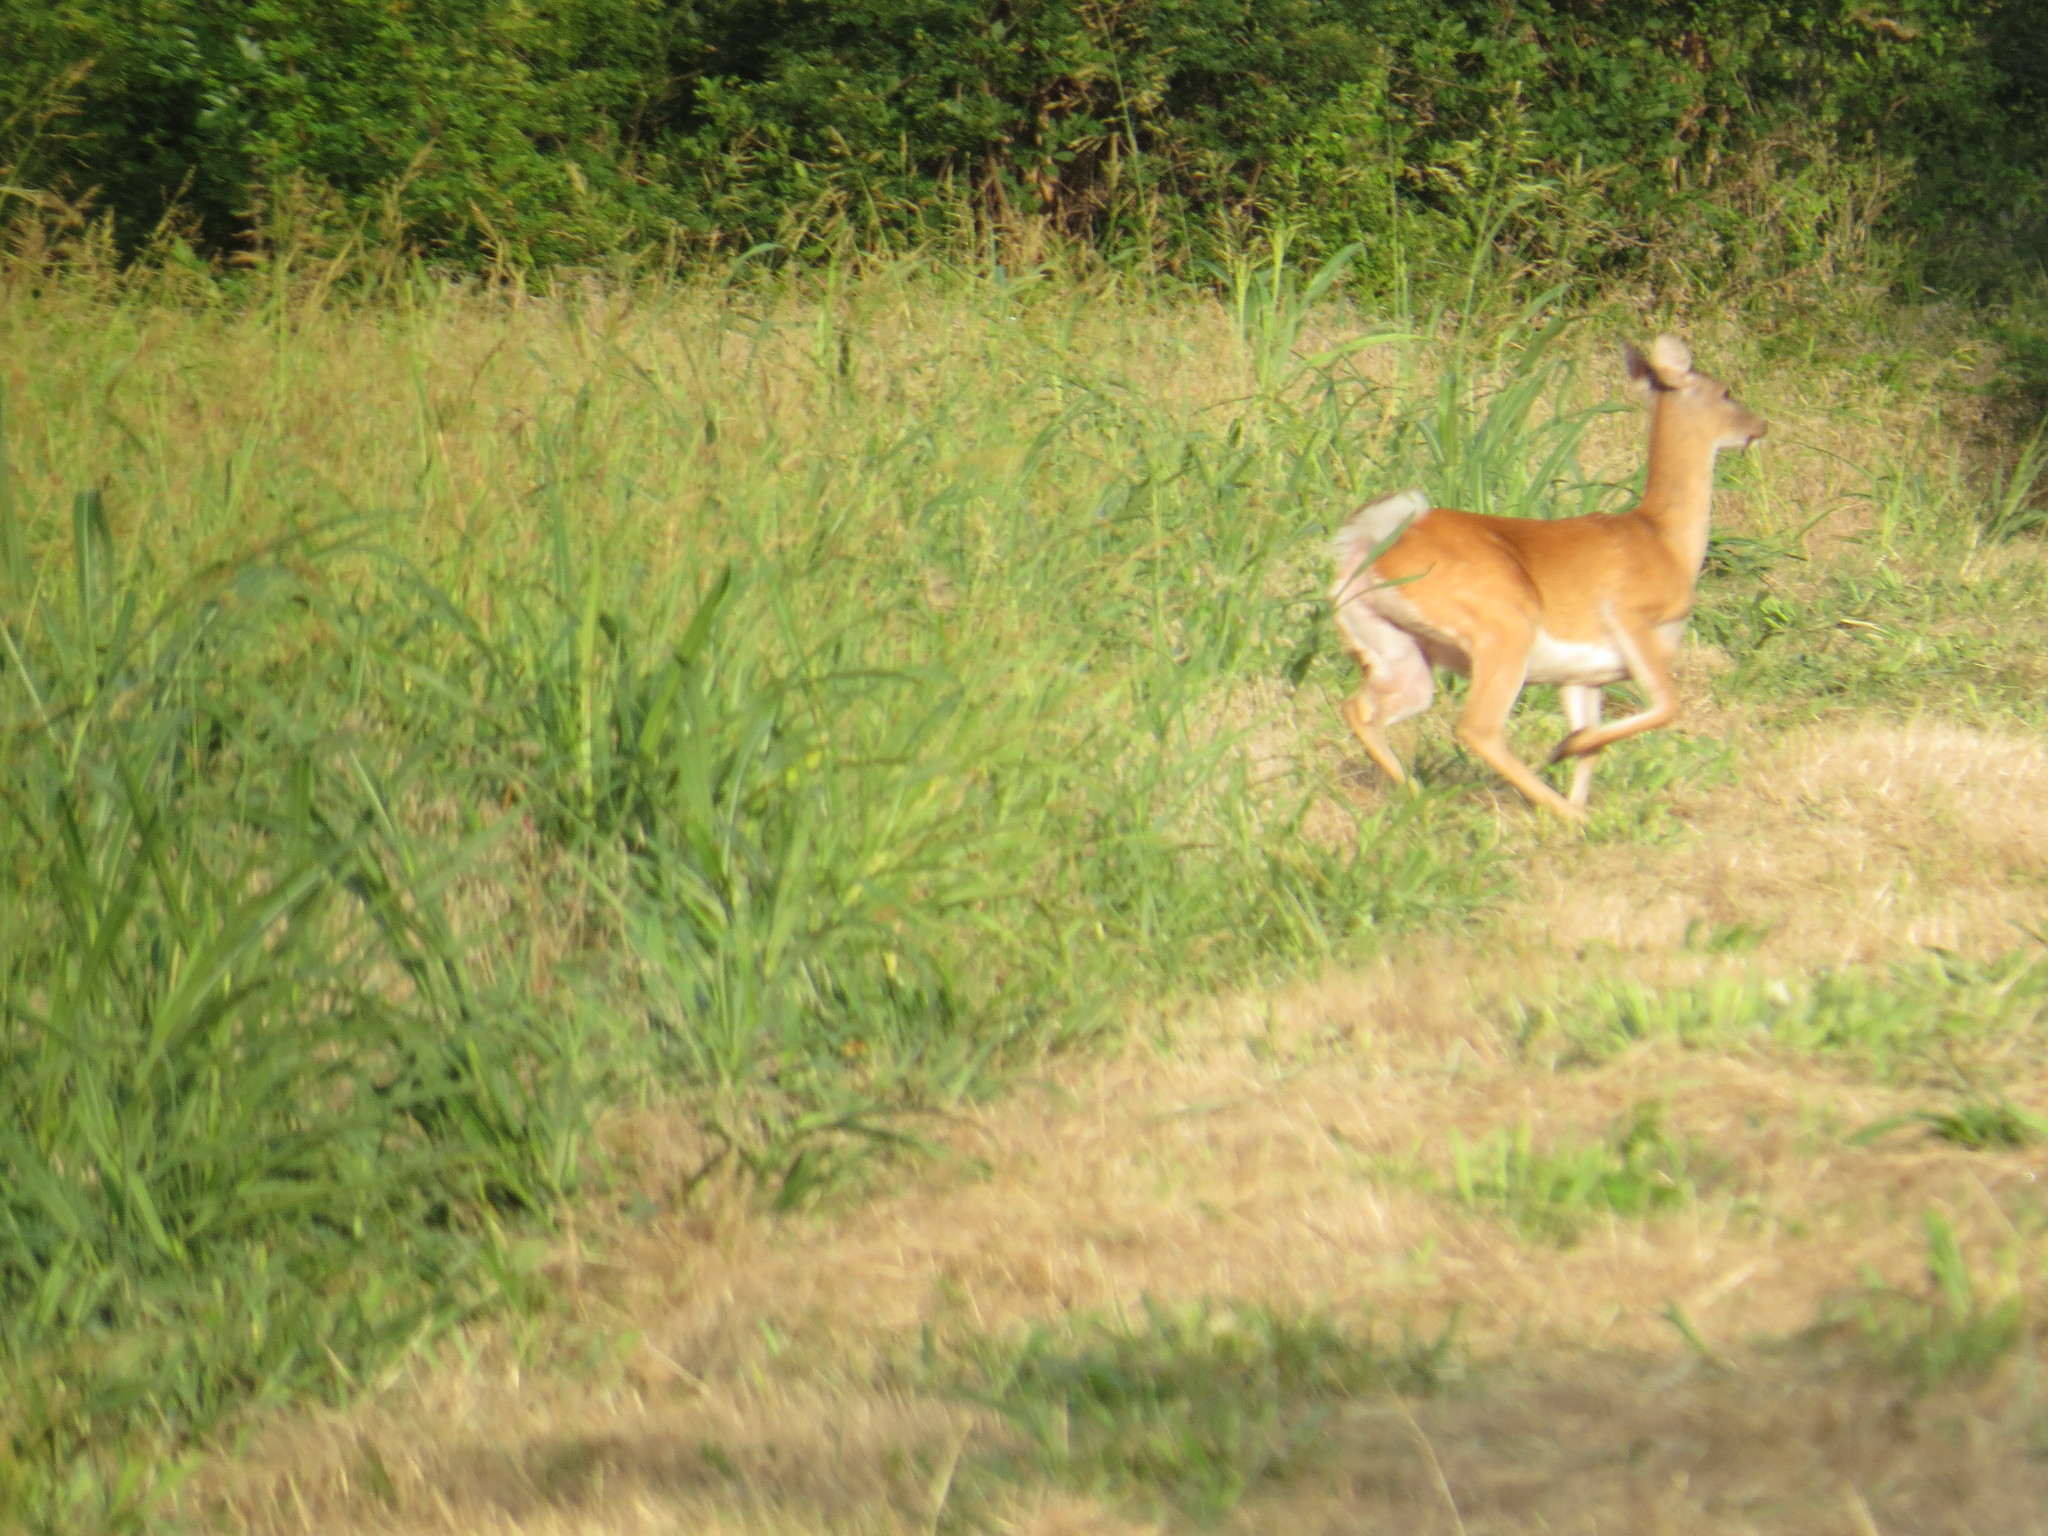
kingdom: Animalia
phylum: Chordata
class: Mammalia
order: Artiodactyla
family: Cervidae
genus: Odocoileus
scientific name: Odocoileus virginianus
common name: White-tailed deer
